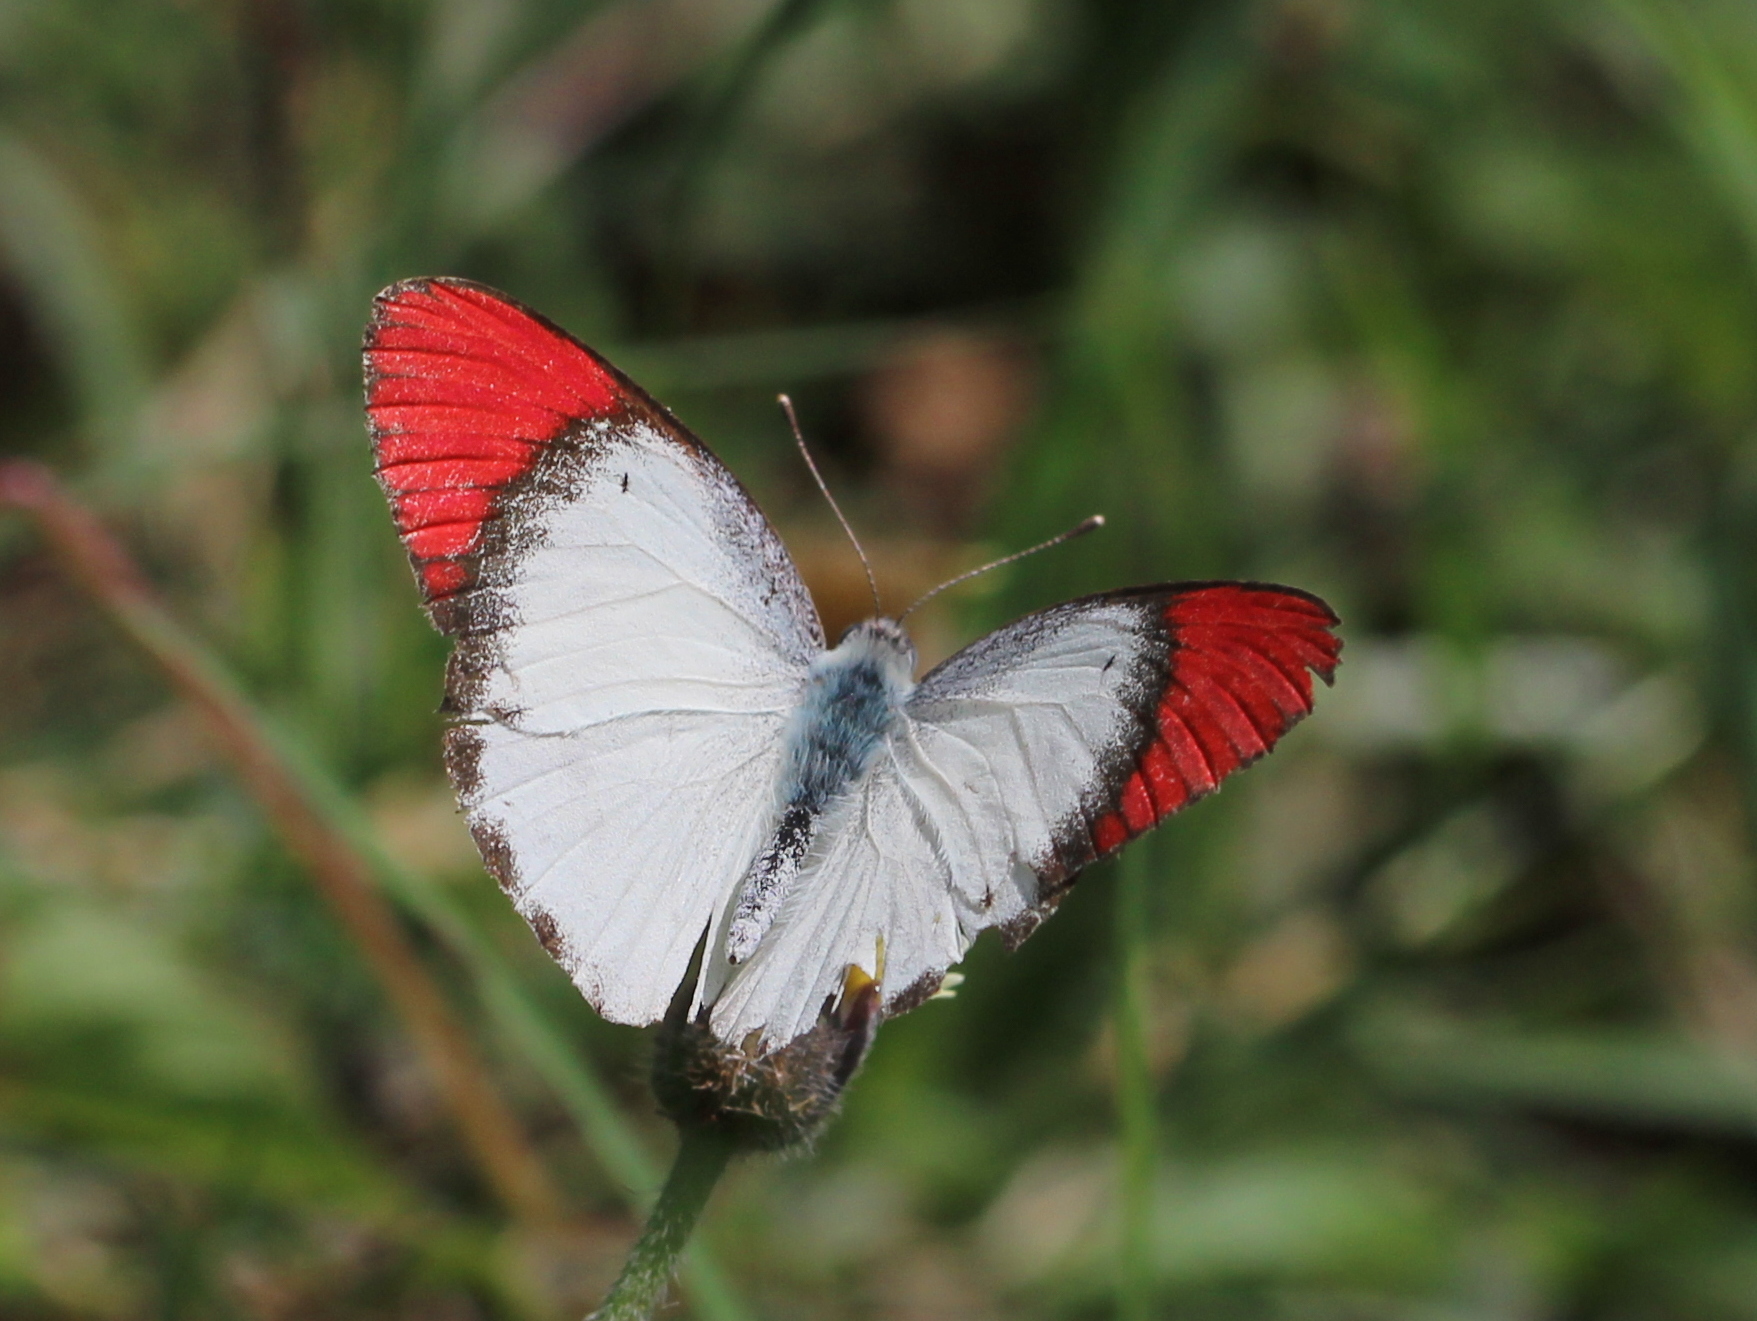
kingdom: Animalia
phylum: Arthropoda
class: Insecta
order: Lepidoptera
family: Pieridae
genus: Colotis
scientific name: Colotis danae
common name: Crimson tip
